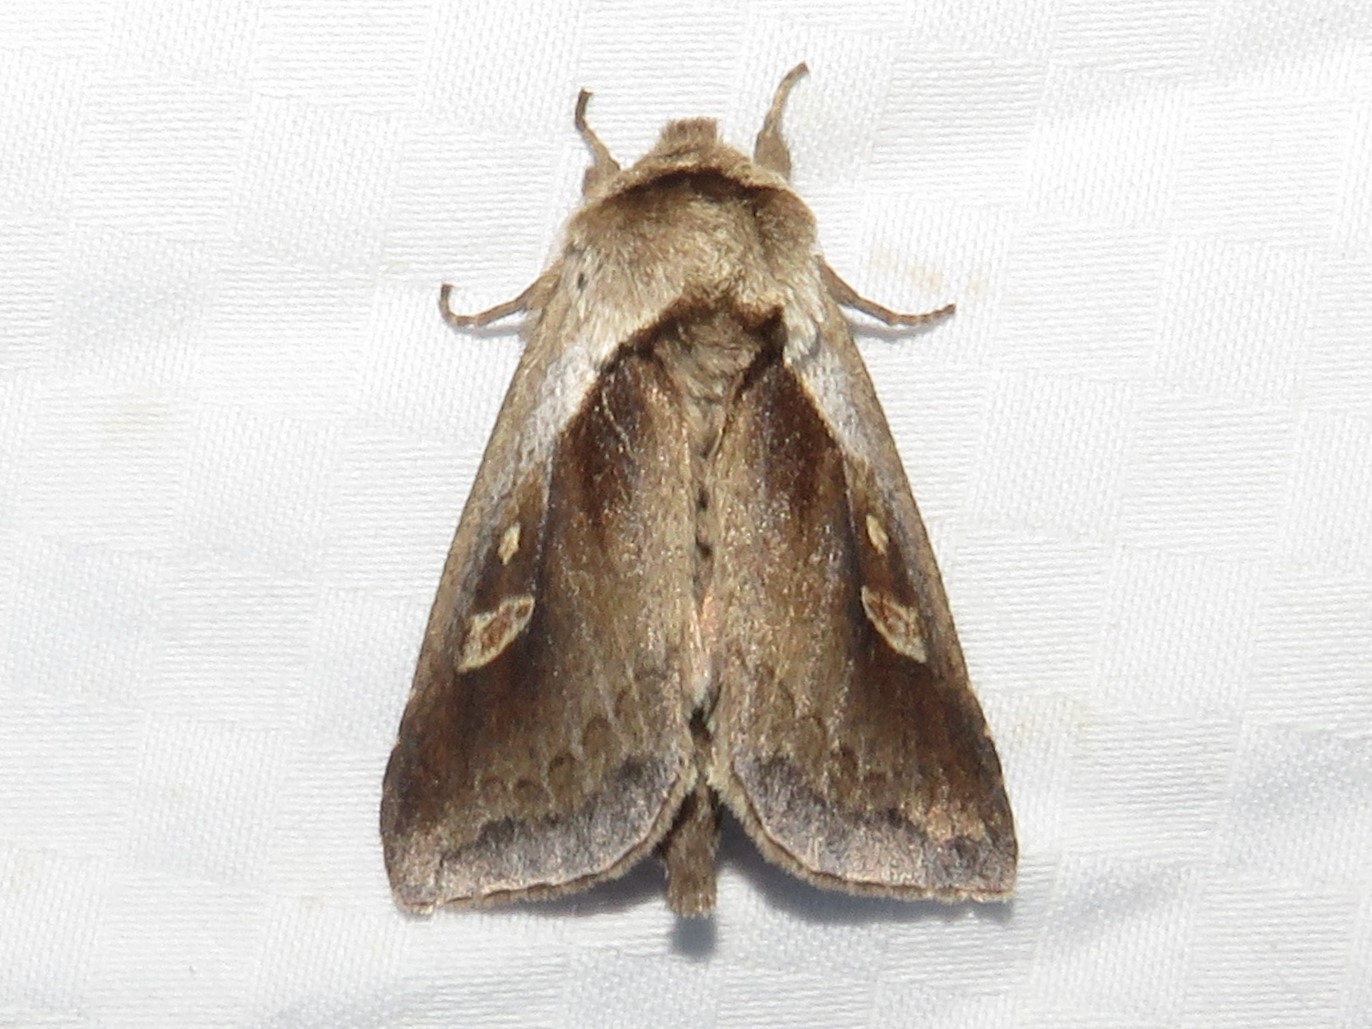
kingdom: Animalia
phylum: Arthropoda
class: Insecta
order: Lepidoptera
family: Noctuidae
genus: Bellura
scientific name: Bellura obliqua
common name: Cattail borer moth
